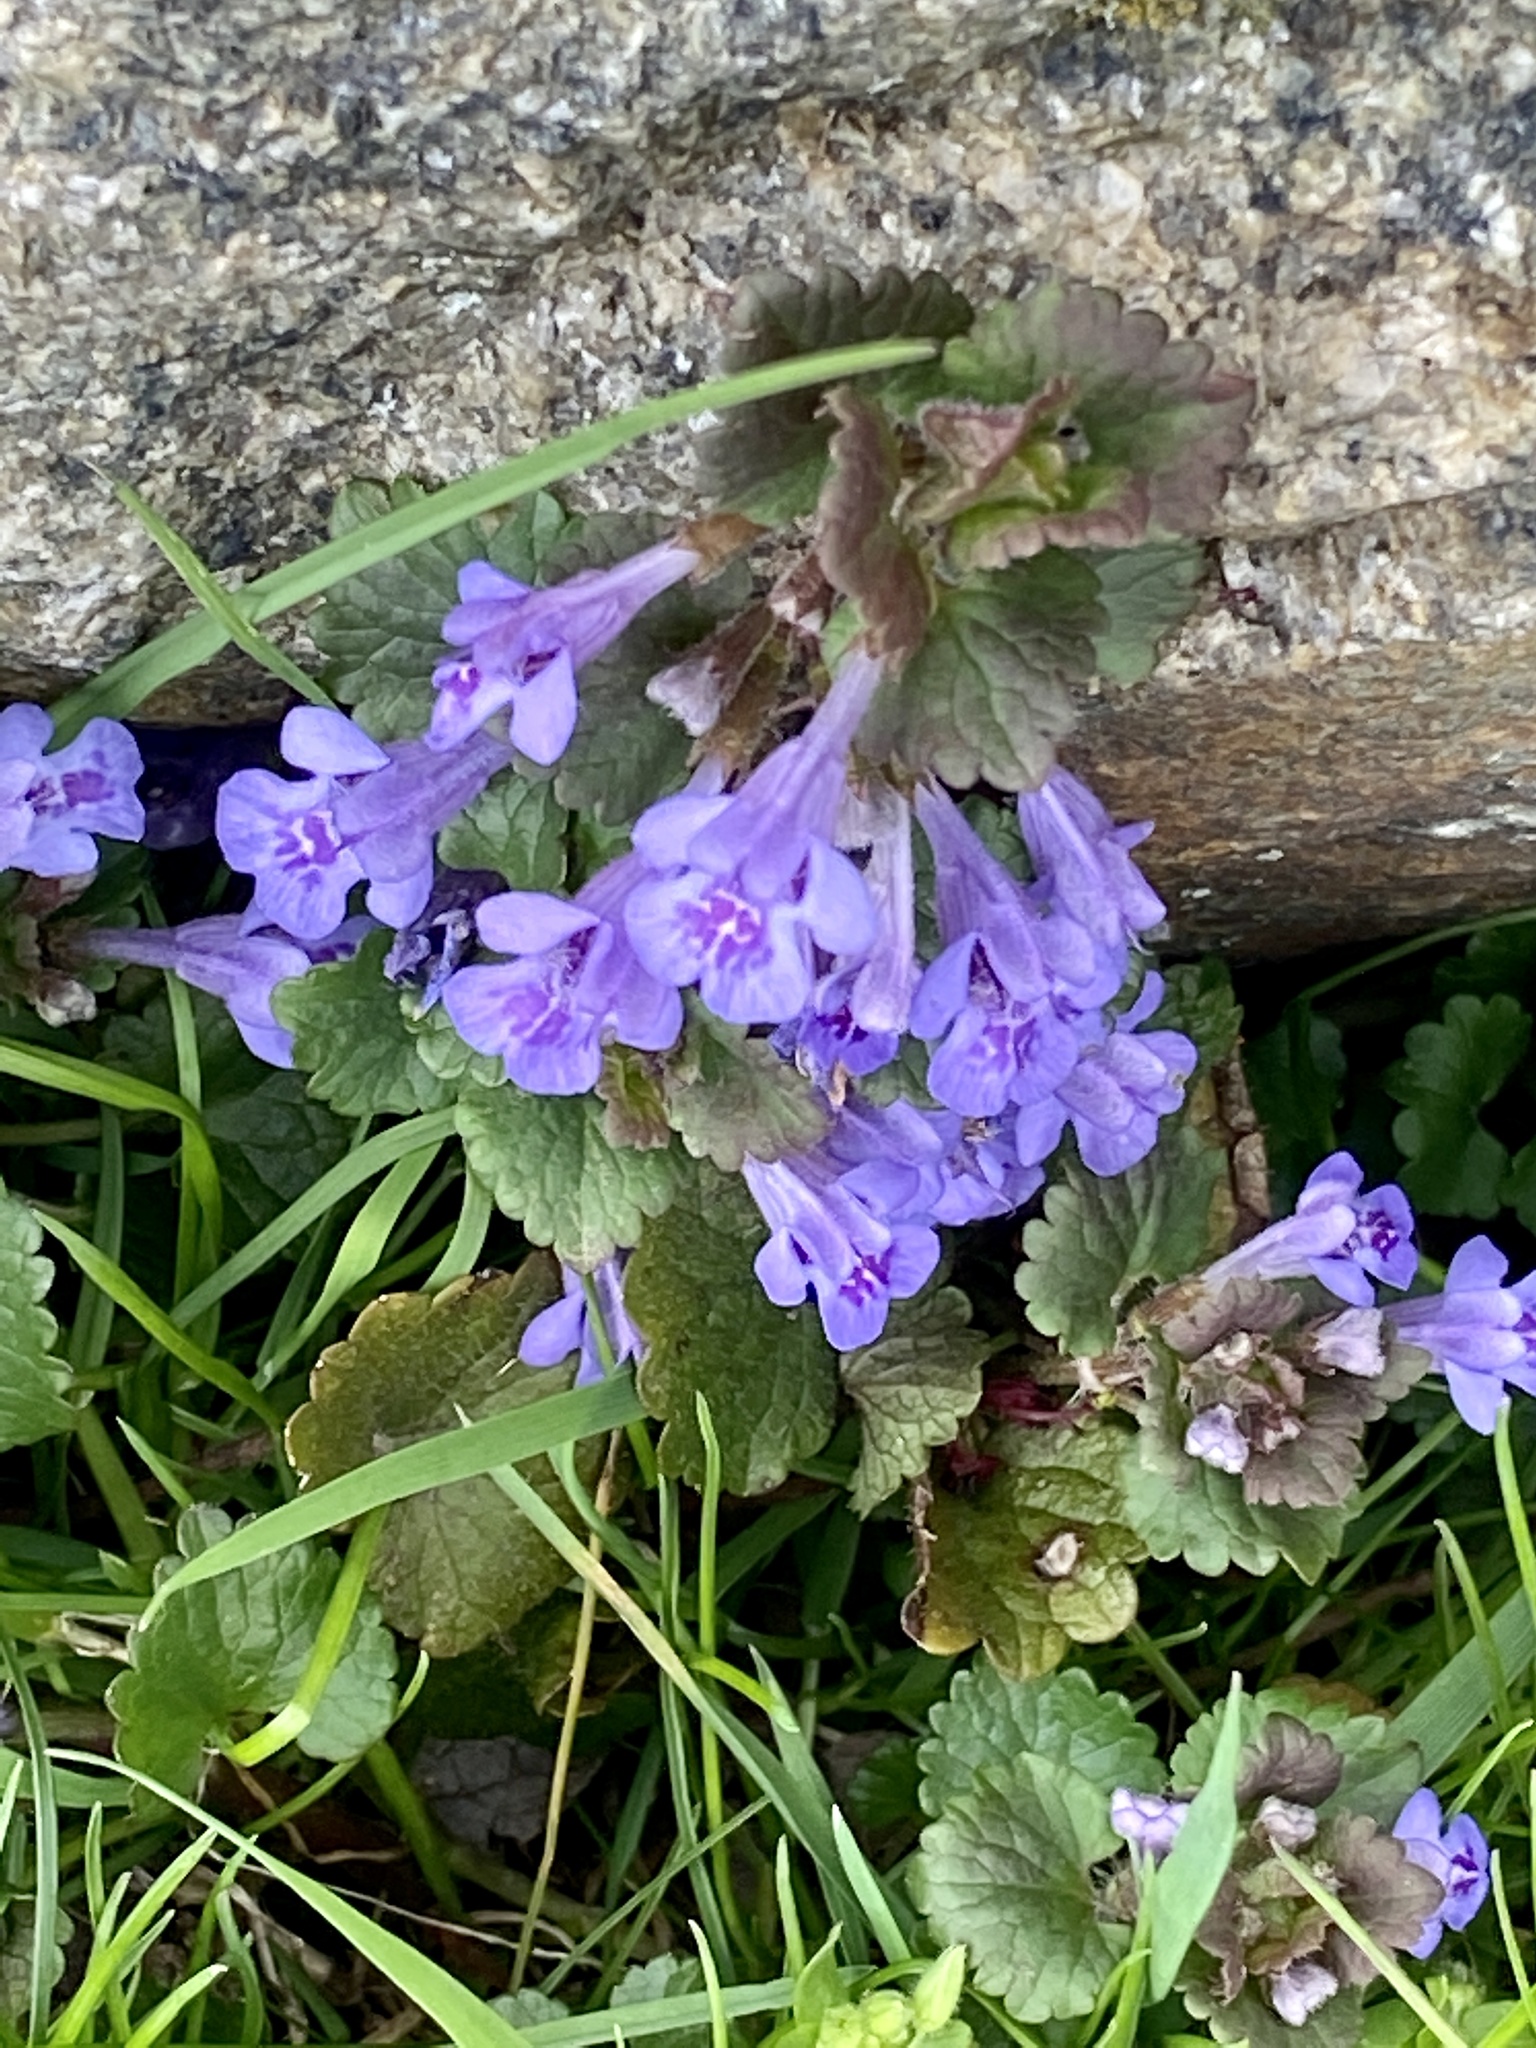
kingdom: Plantae
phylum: Tracheophyta
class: Magnoliopsida
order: Lamiales
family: Lamiaceae
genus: Glechoma
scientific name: Glechoma hederacea
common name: Ground ivy
